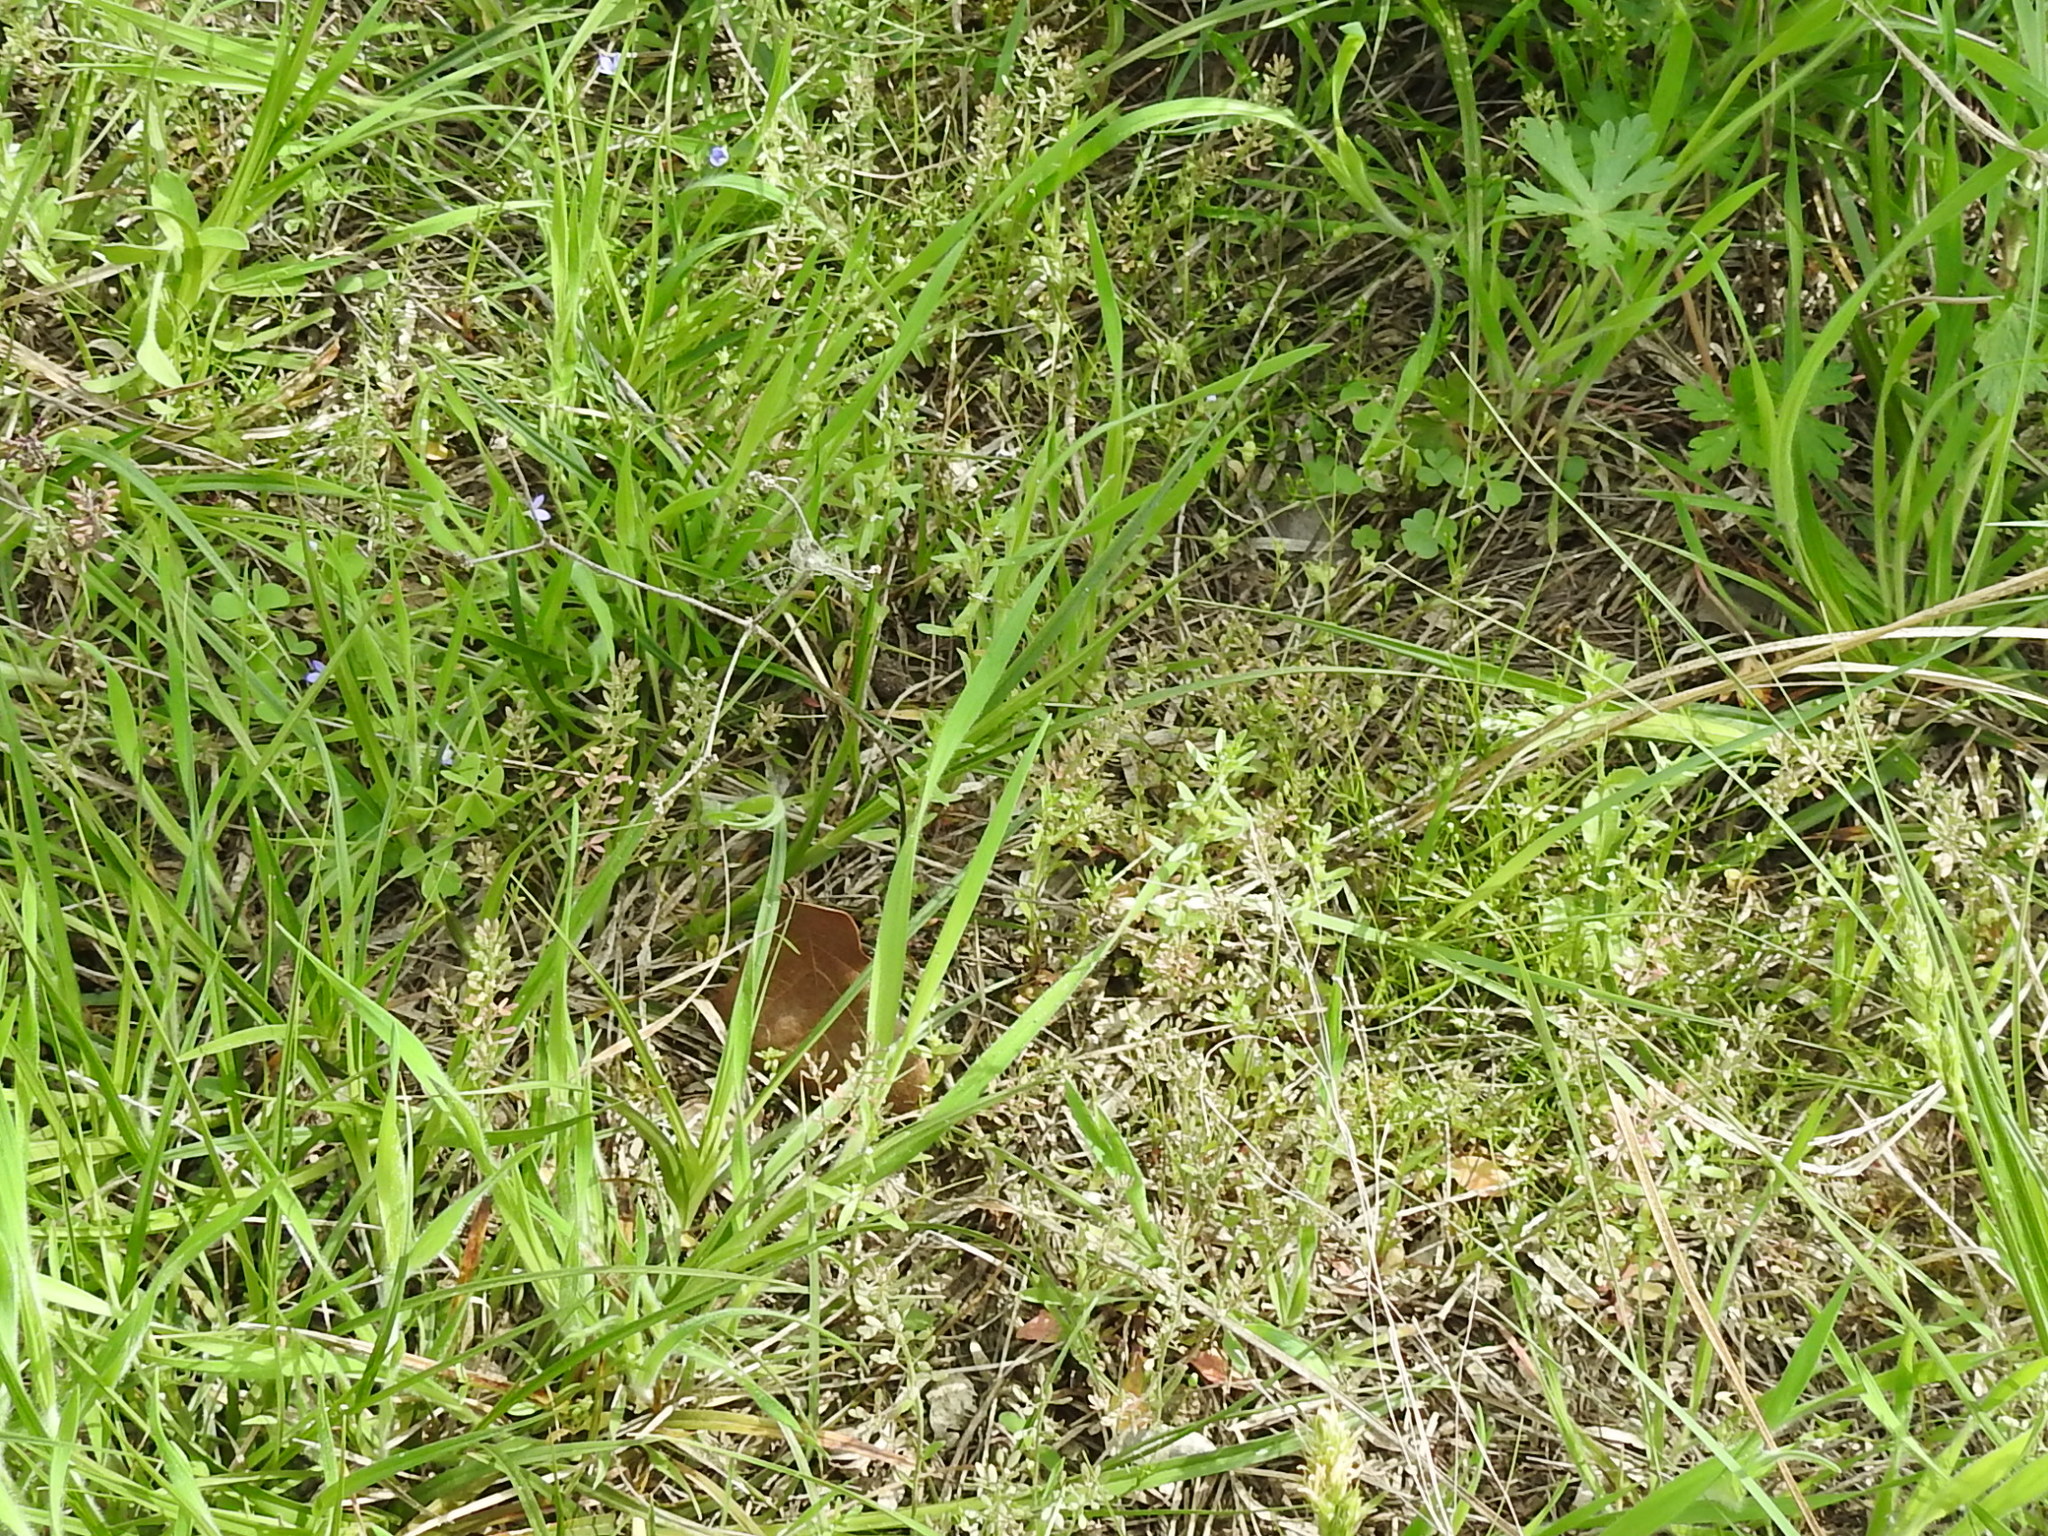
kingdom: Plantae
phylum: Tracheophyta
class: Magnoliopsida
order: Brassicales
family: Brassicaceae
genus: Abdra
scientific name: Abdra brachycarpa
